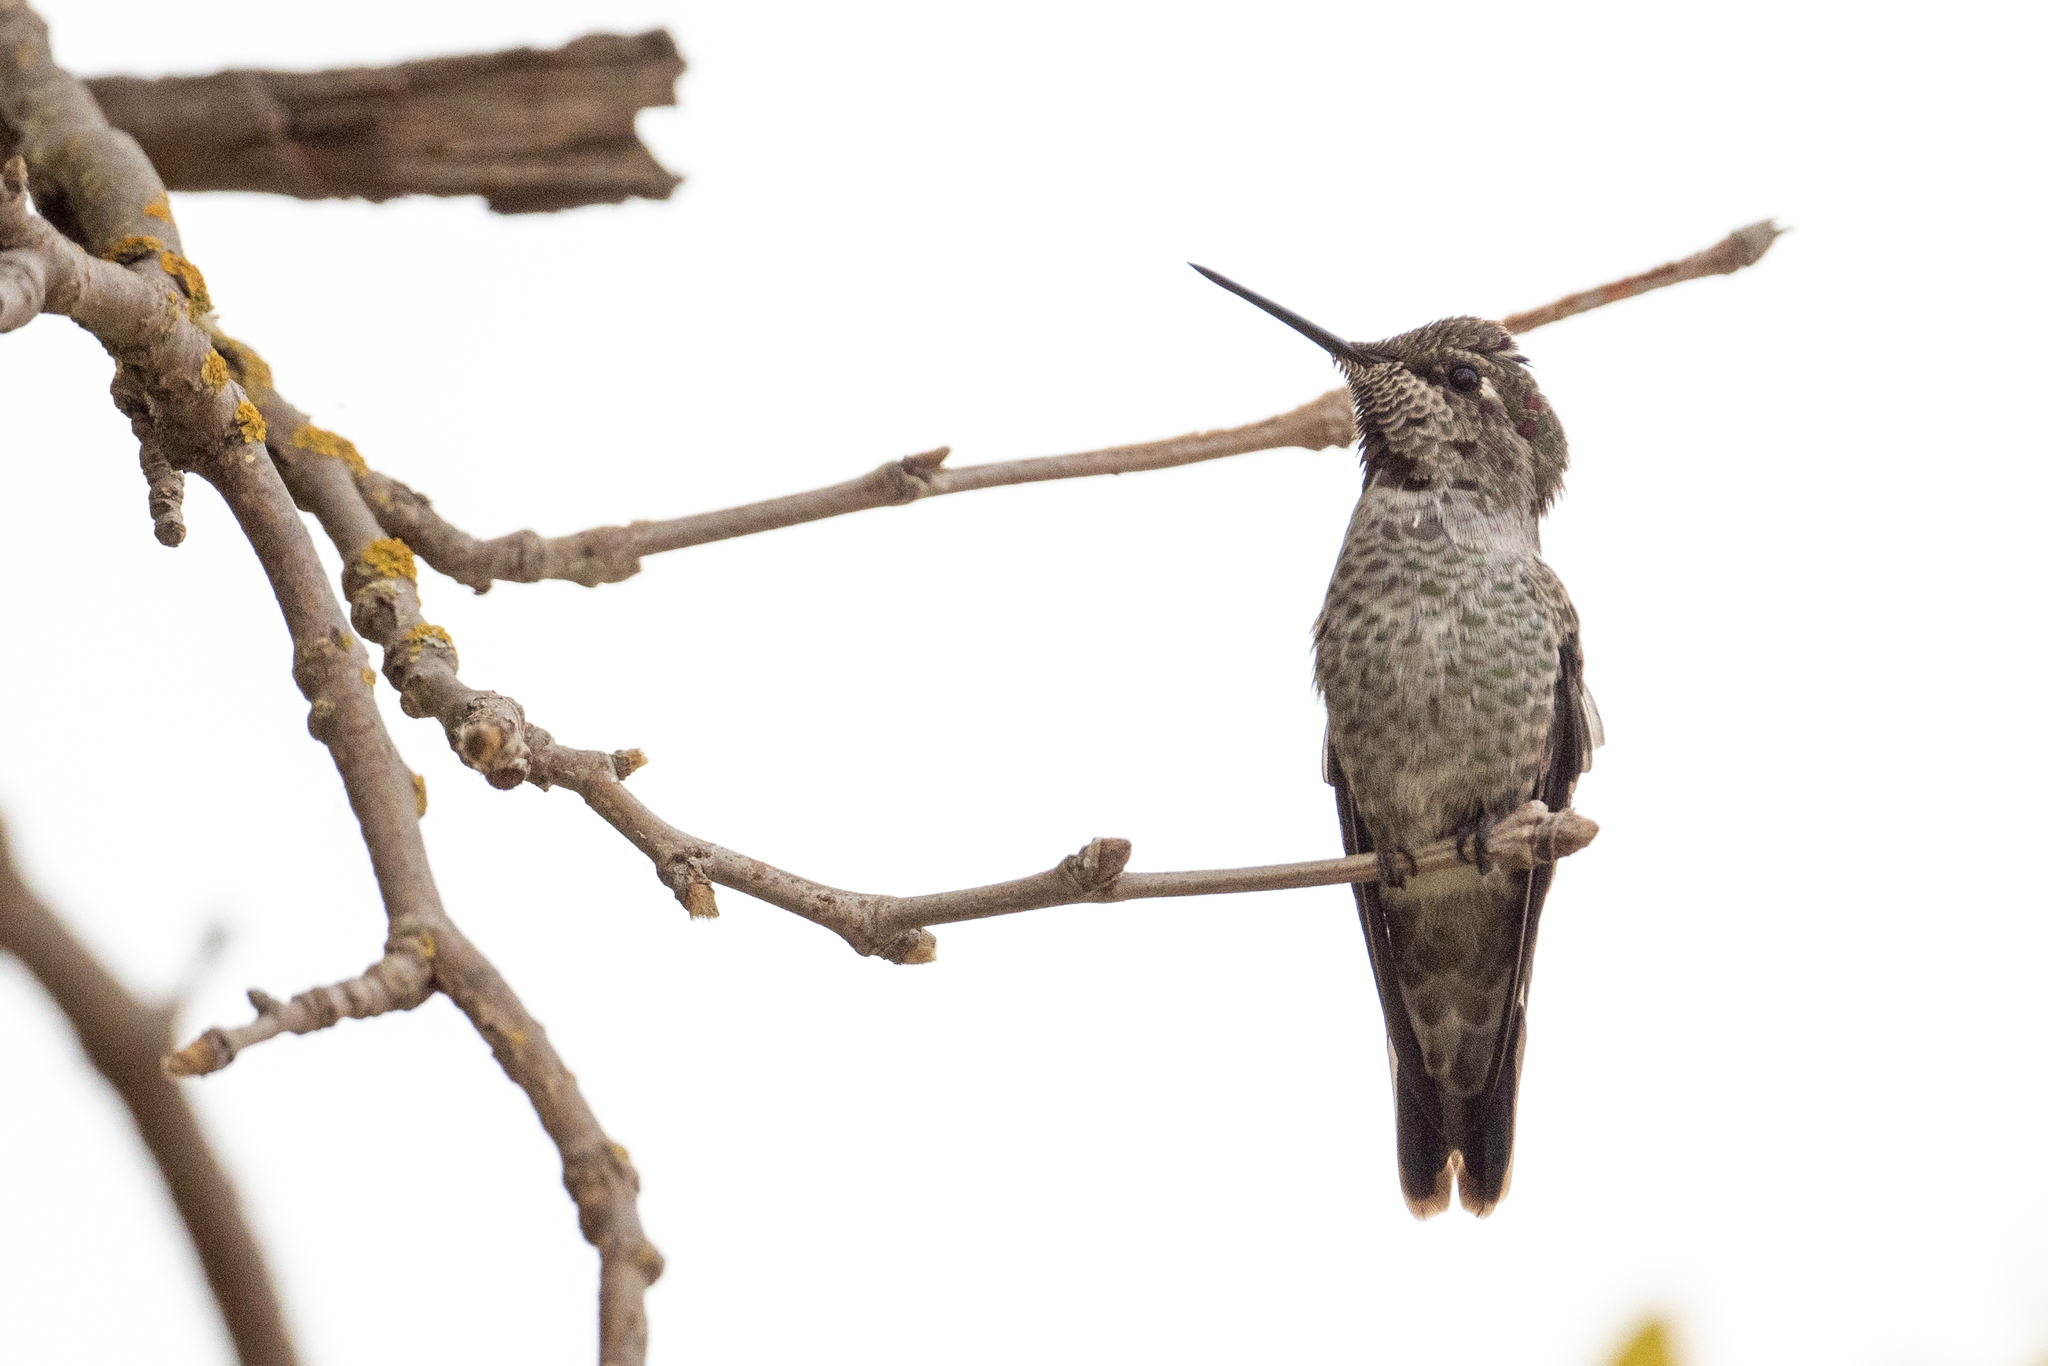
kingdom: Animalia
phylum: Chordata
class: Aves
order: Apodiformes
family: Trochilidae
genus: Calypte
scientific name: Calypte anna
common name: Anna's hummingbird
